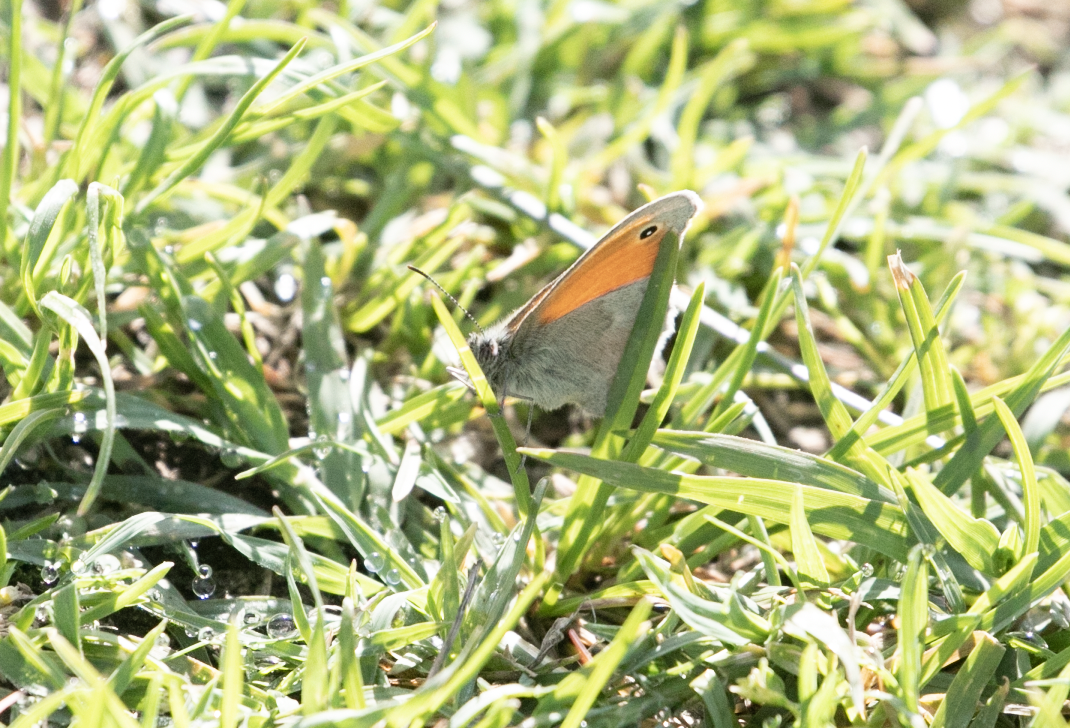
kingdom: Animalia
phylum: Arthropoda
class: Insecta
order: Lepidoptera
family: Nymphalidae
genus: Coenonympha
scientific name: Coenonympha pamphilus
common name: Small heath
